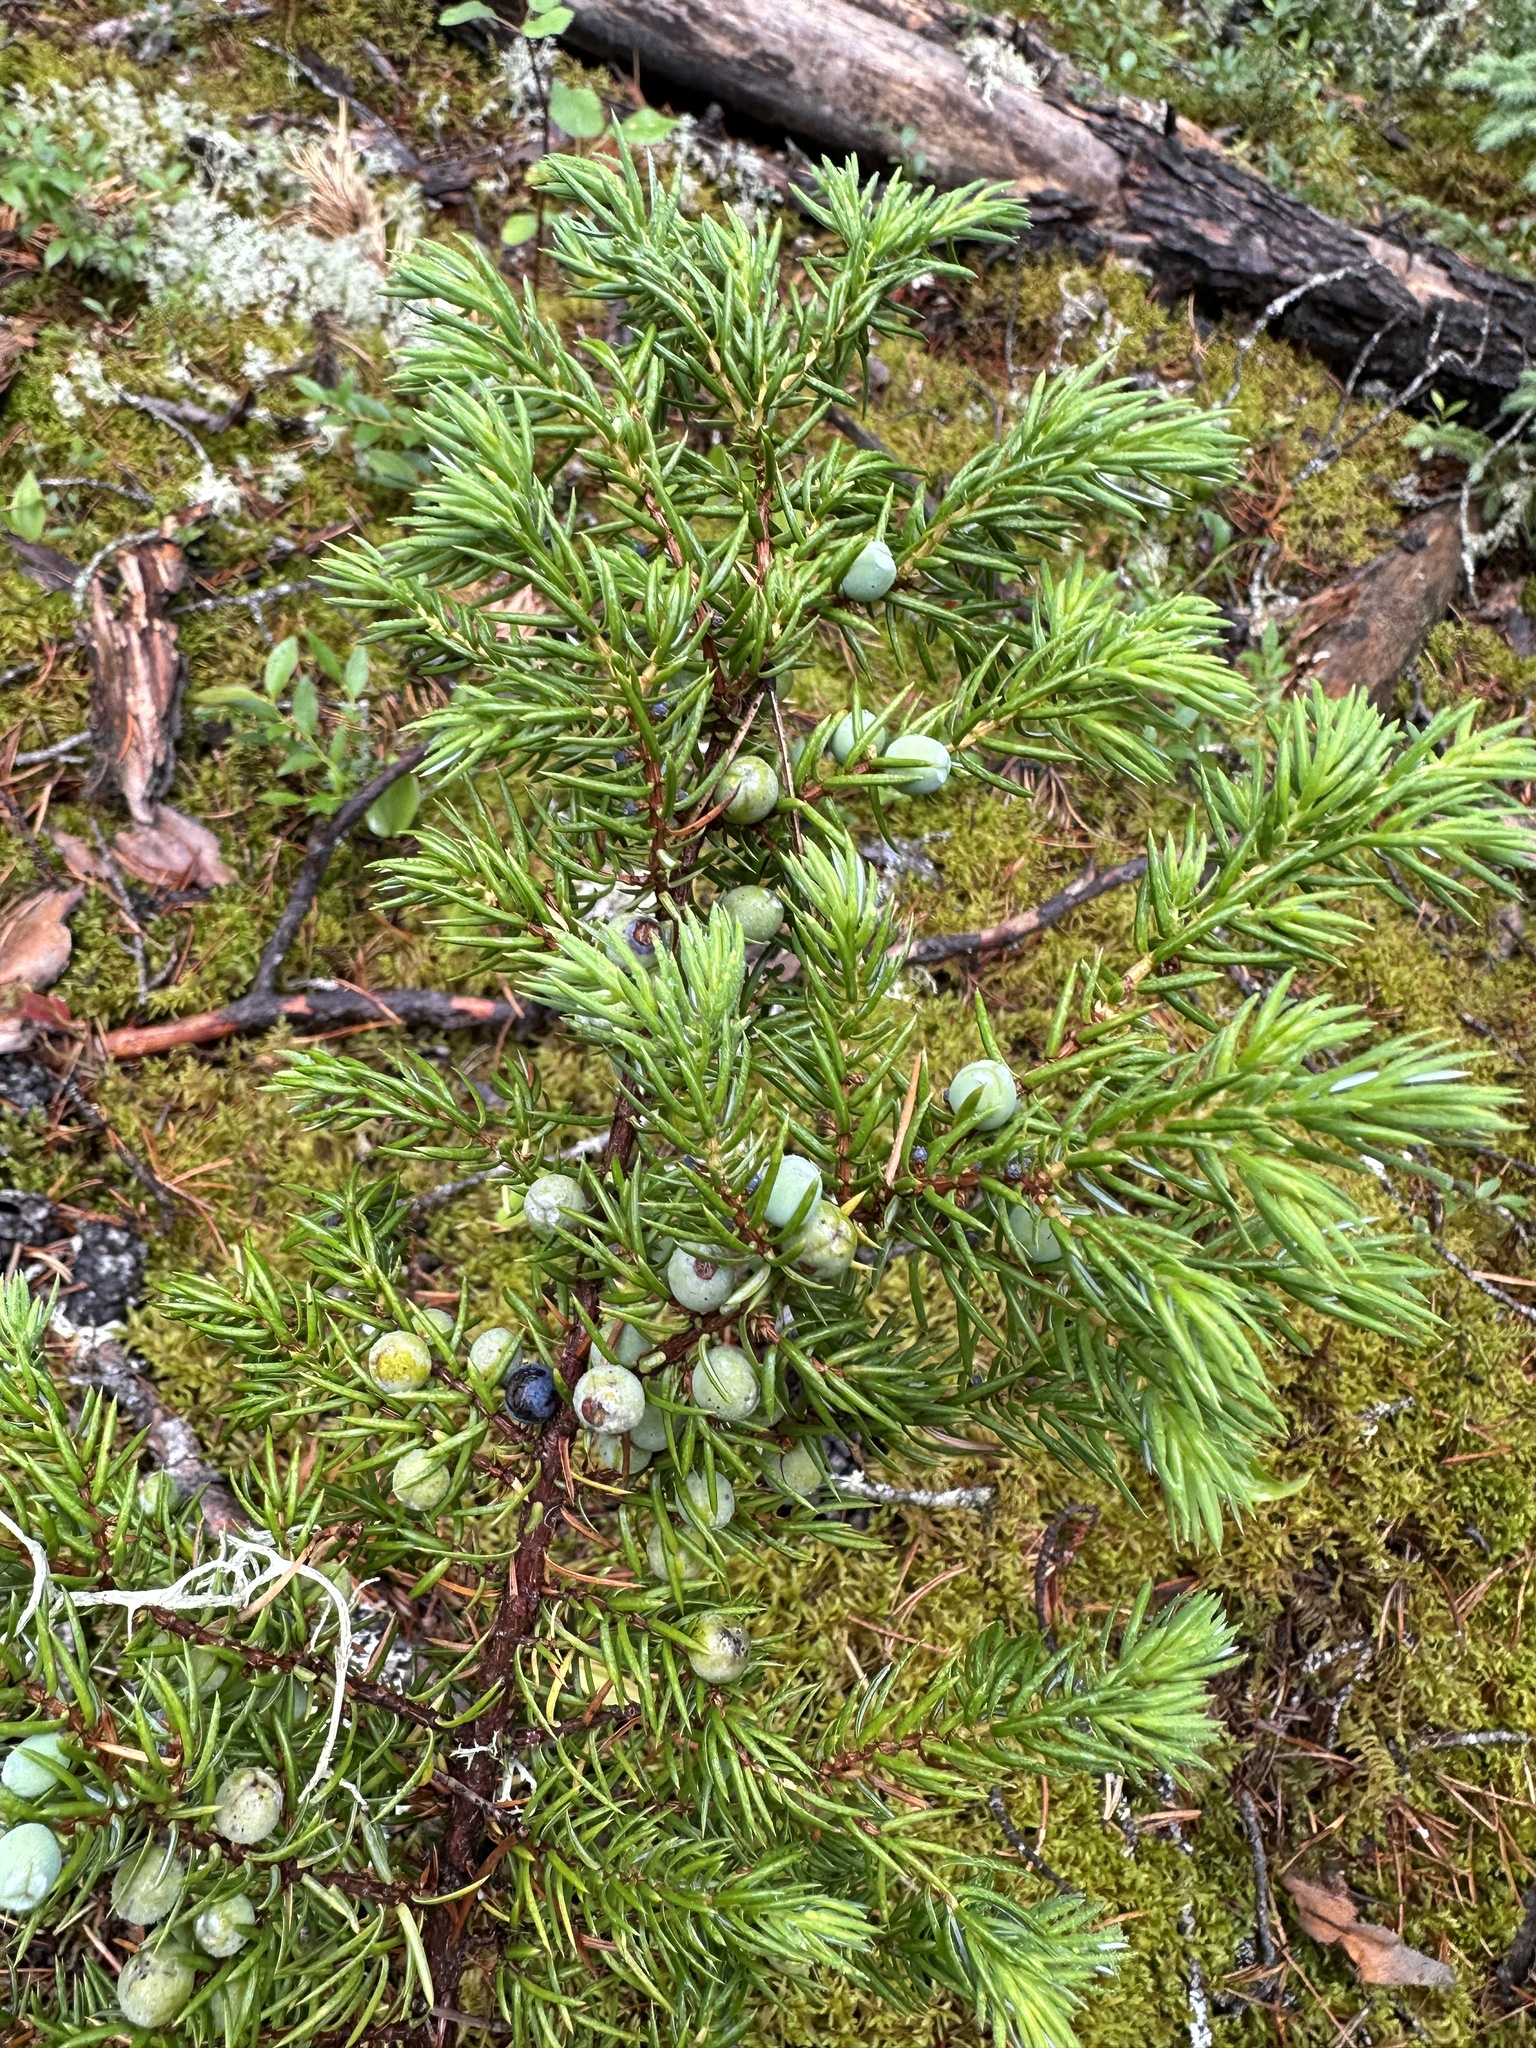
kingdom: Plantae
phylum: Tracheophyta
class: Pinopsida
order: Pinales
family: Cupressaceae
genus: Juniperus
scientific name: Juniperus communis
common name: Common juniper
